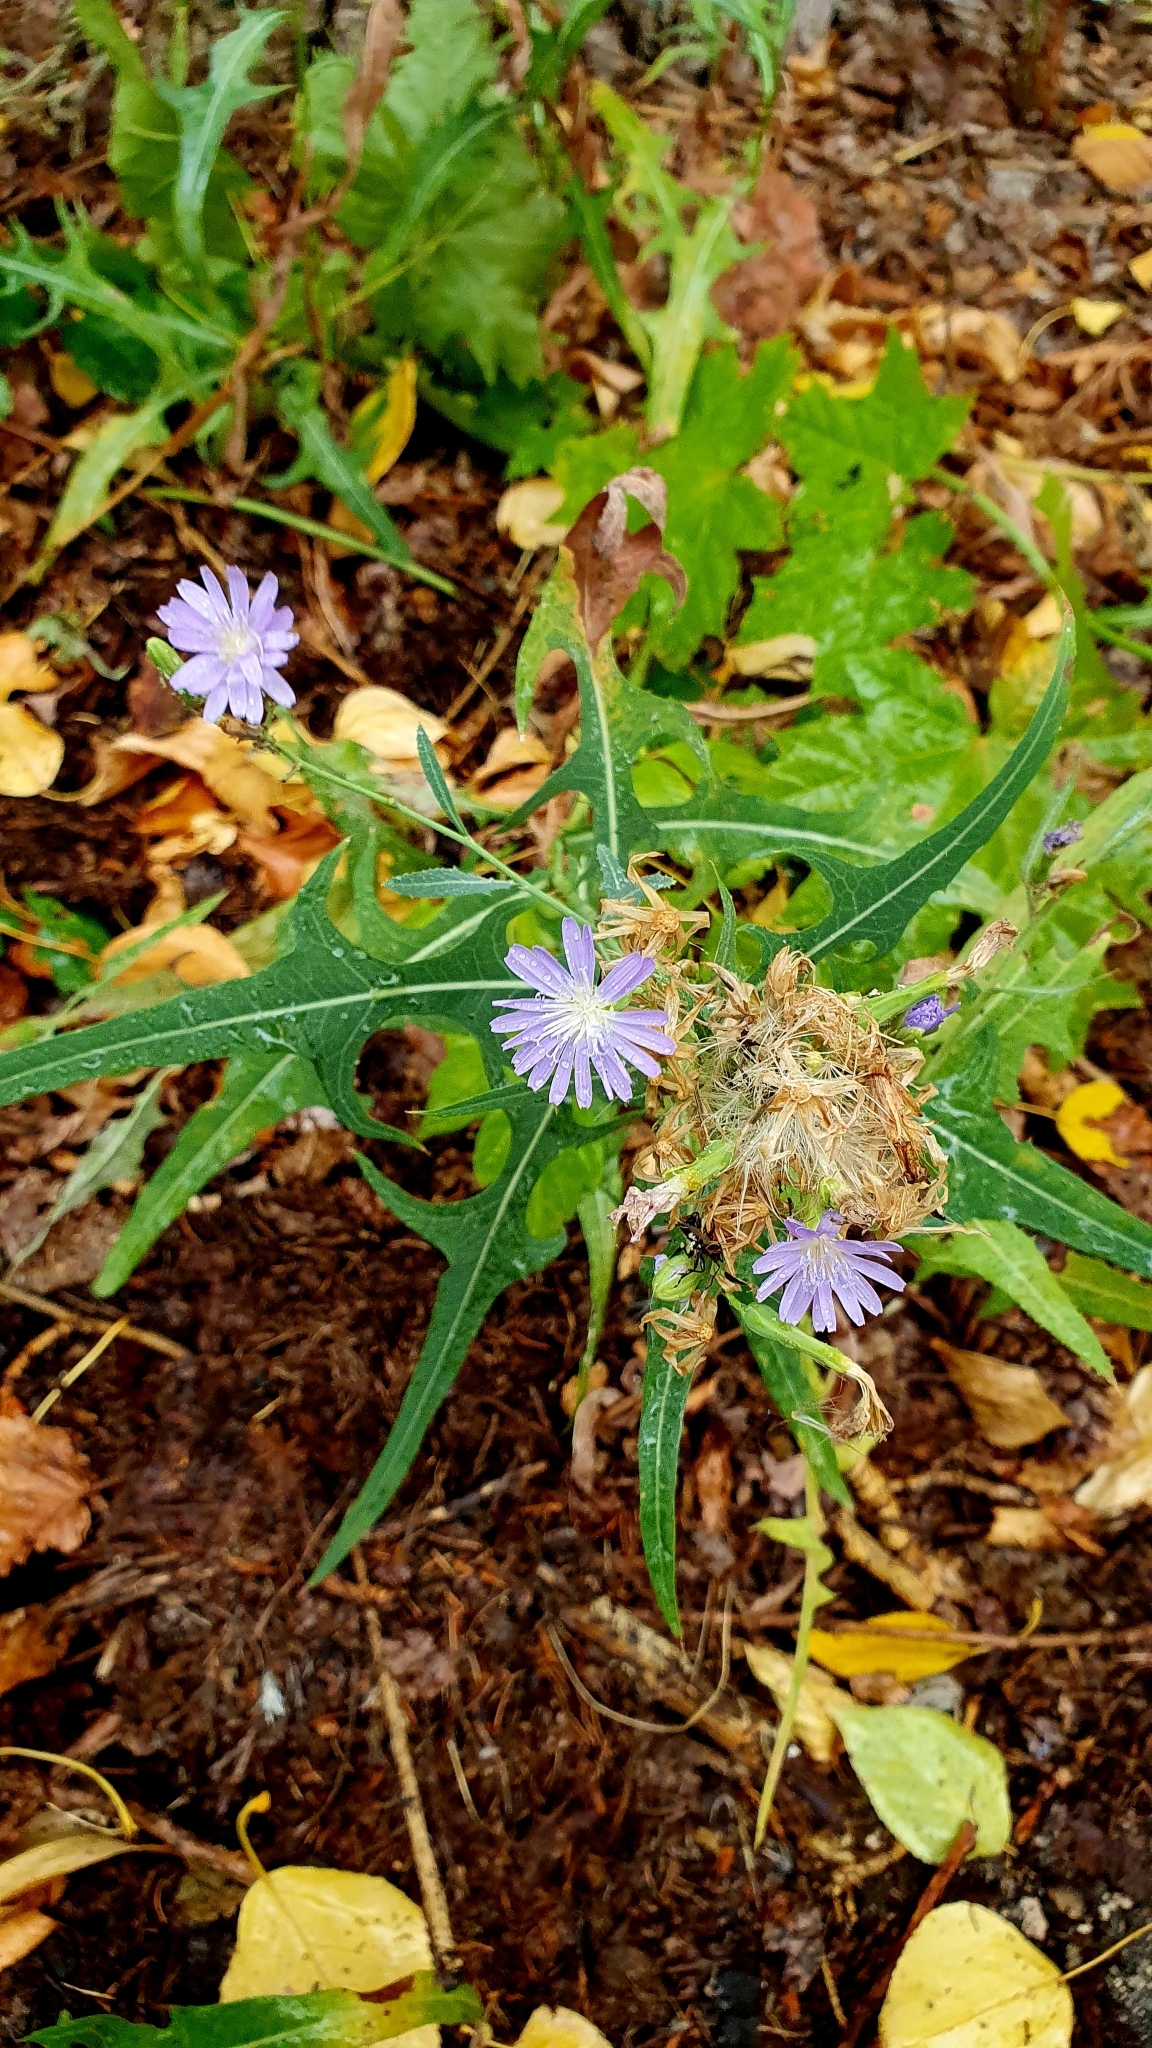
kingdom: Plantae
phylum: Tracheophyta
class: Magnoliopsida
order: Asterales
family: Asteraceae
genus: Lactuca
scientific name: Lactuca tatarica
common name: Blue lettuce
